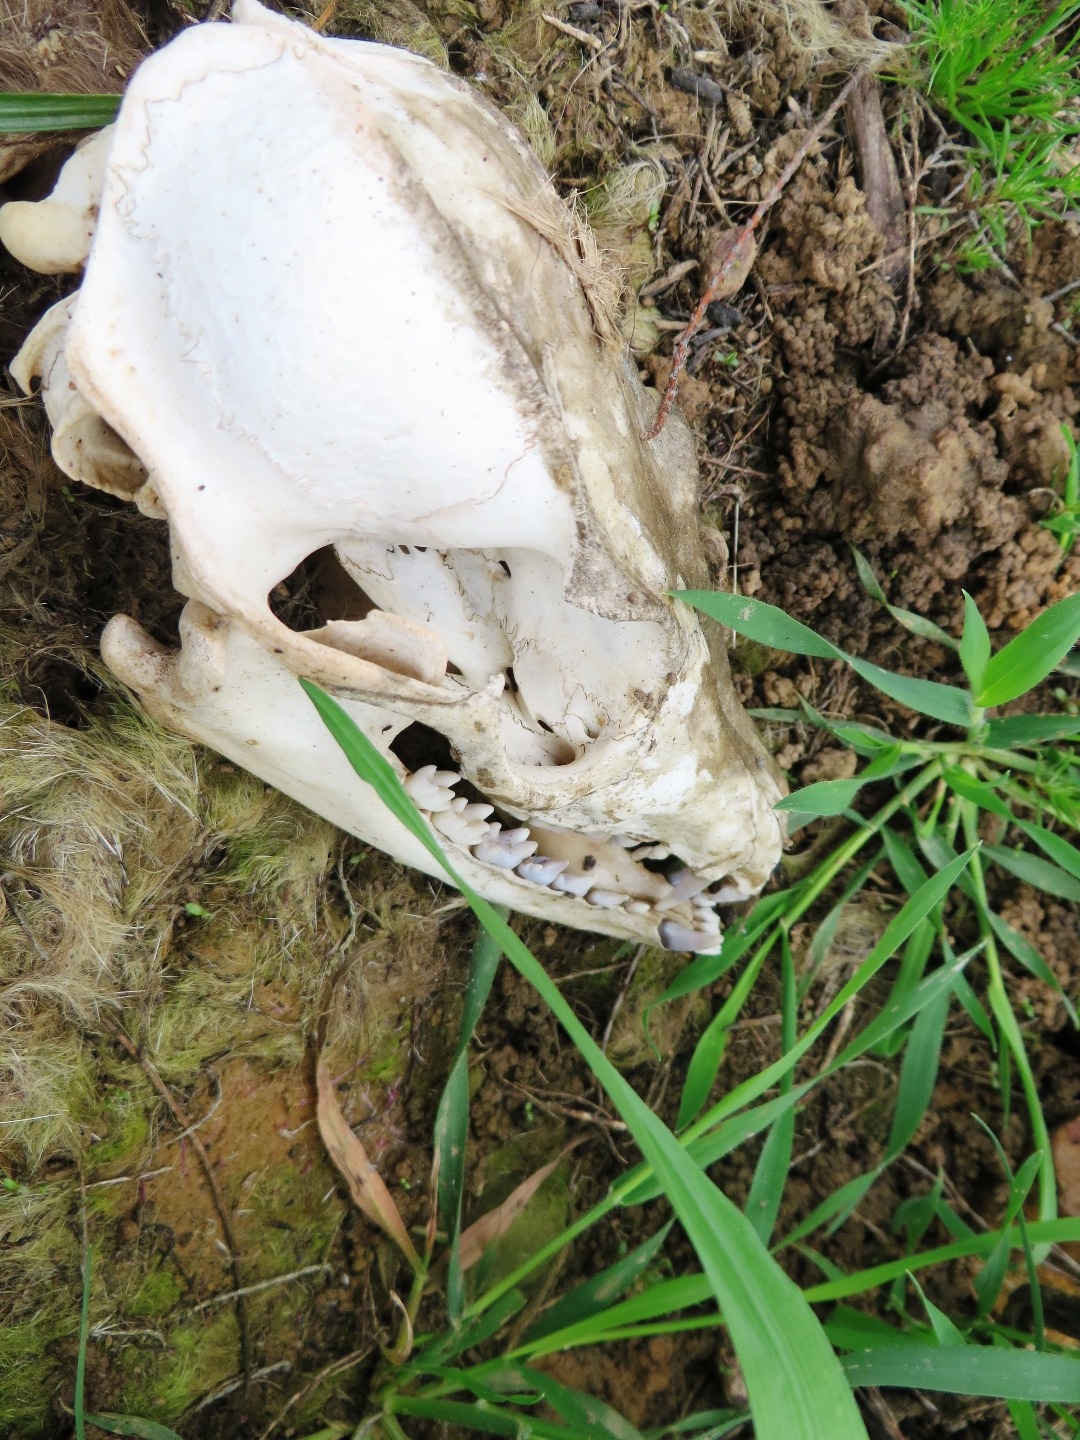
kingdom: Animalia
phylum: Chordata
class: Mammalia
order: Carnivora
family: Canidae
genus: Otocyon
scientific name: Otocyon megalotis
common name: Bat-eared fox
